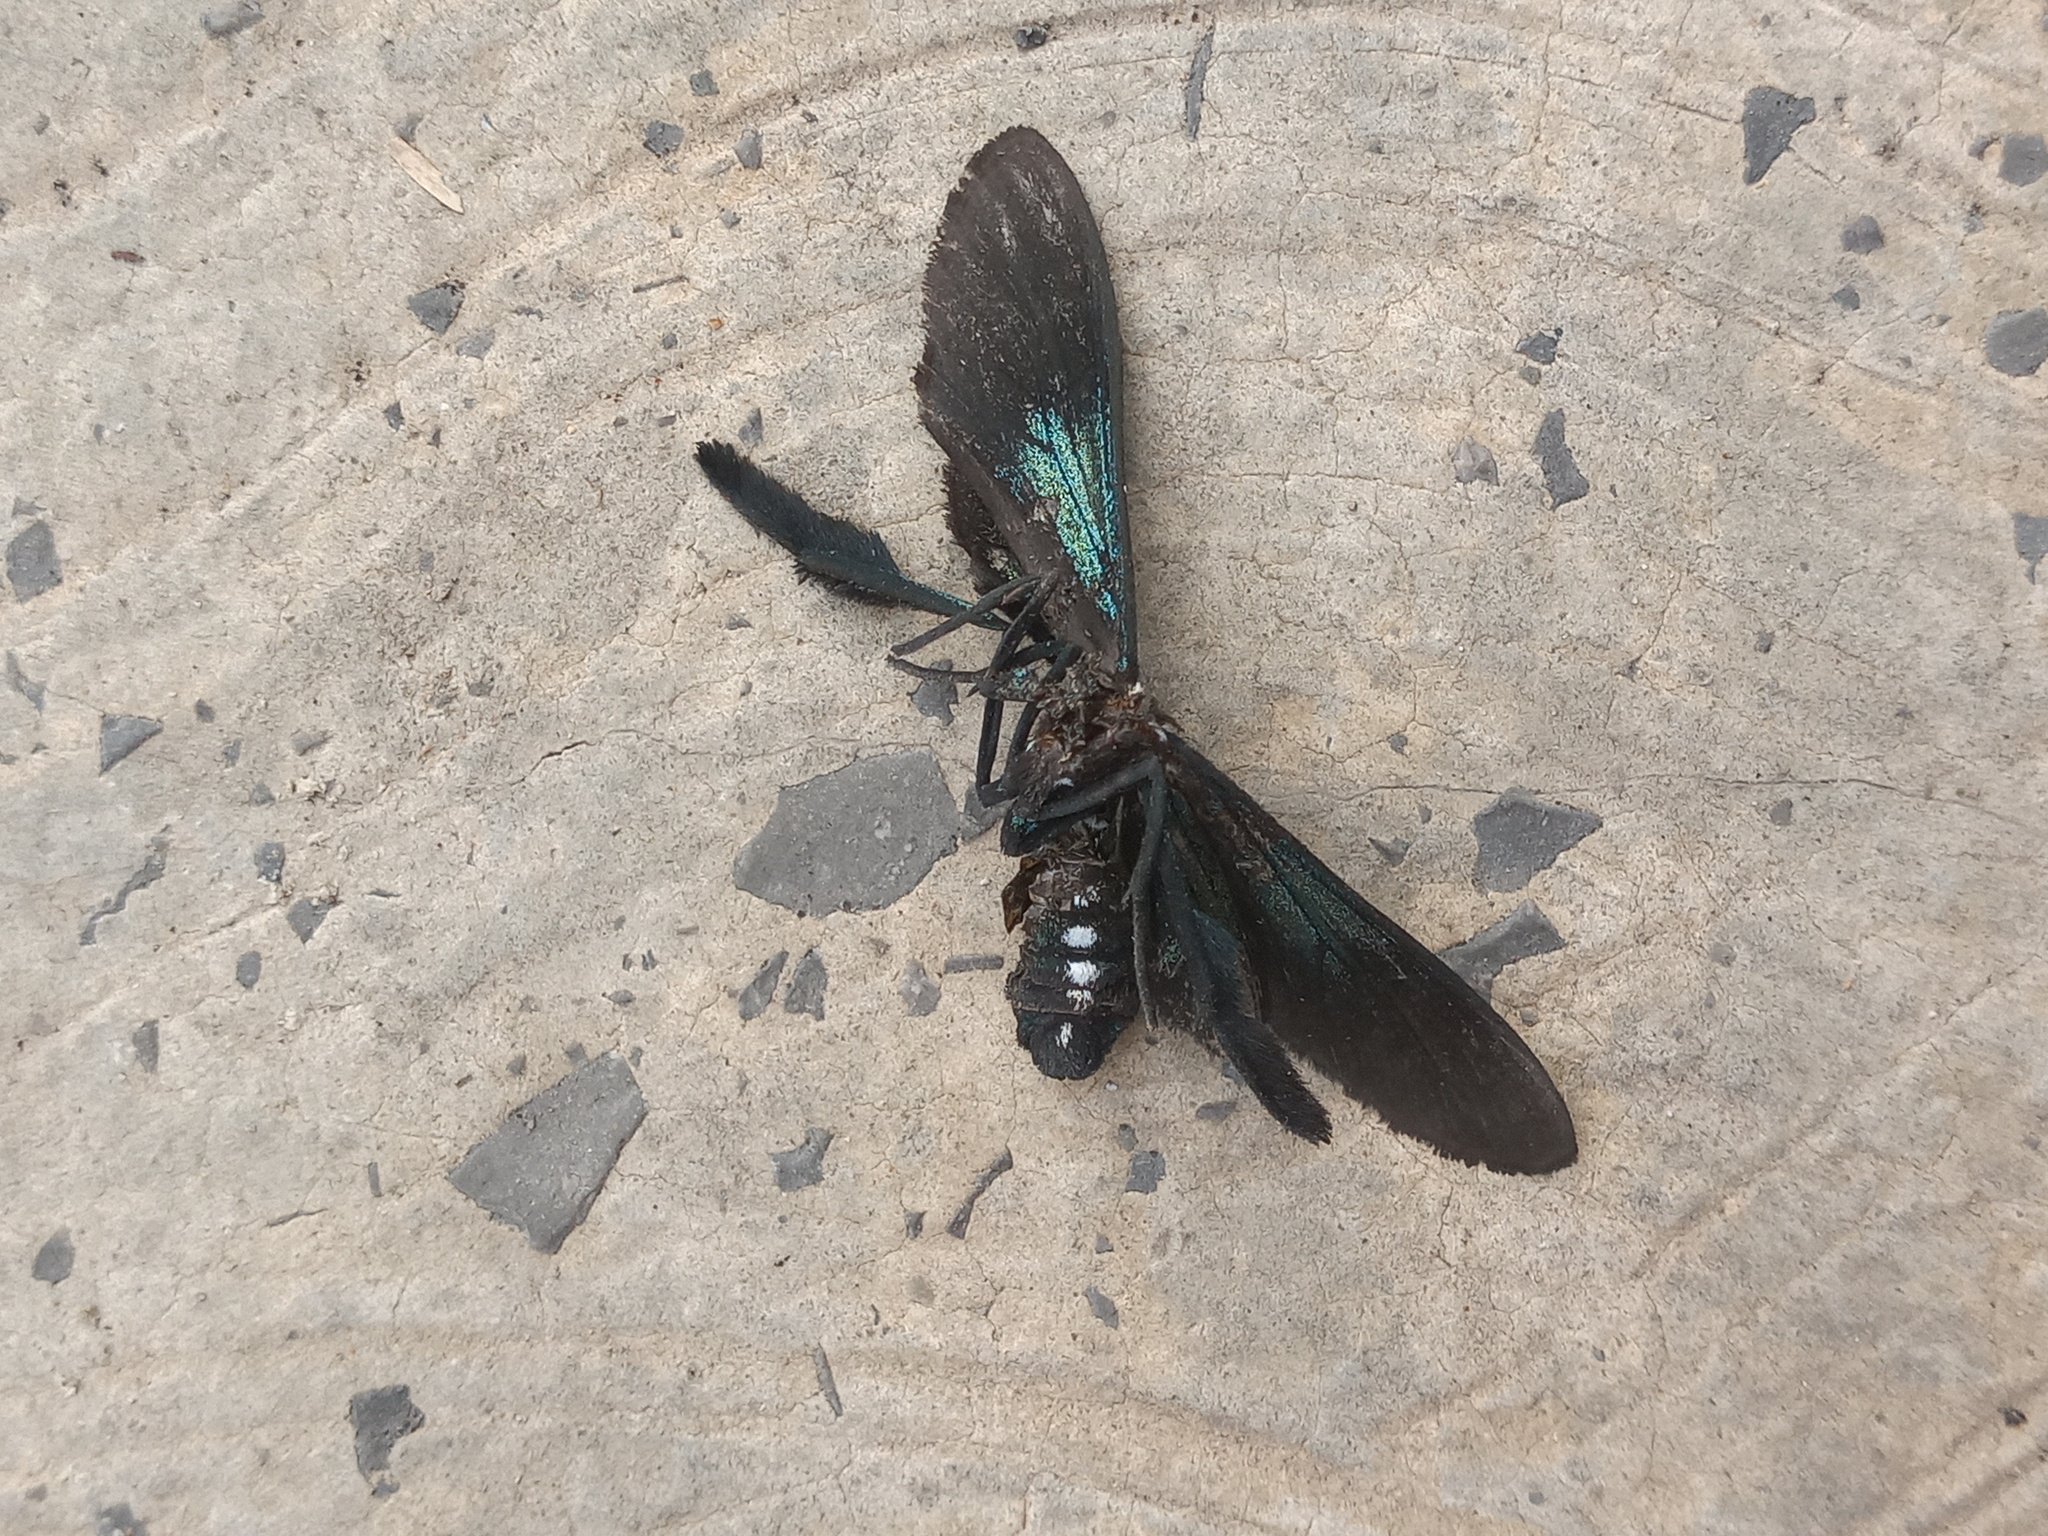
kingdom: Animalia
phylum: Arthropoda
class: Insecta
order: Lepidoptera
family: Erebidae
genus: Macrocneme
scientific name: Macrocneme chrysitis
